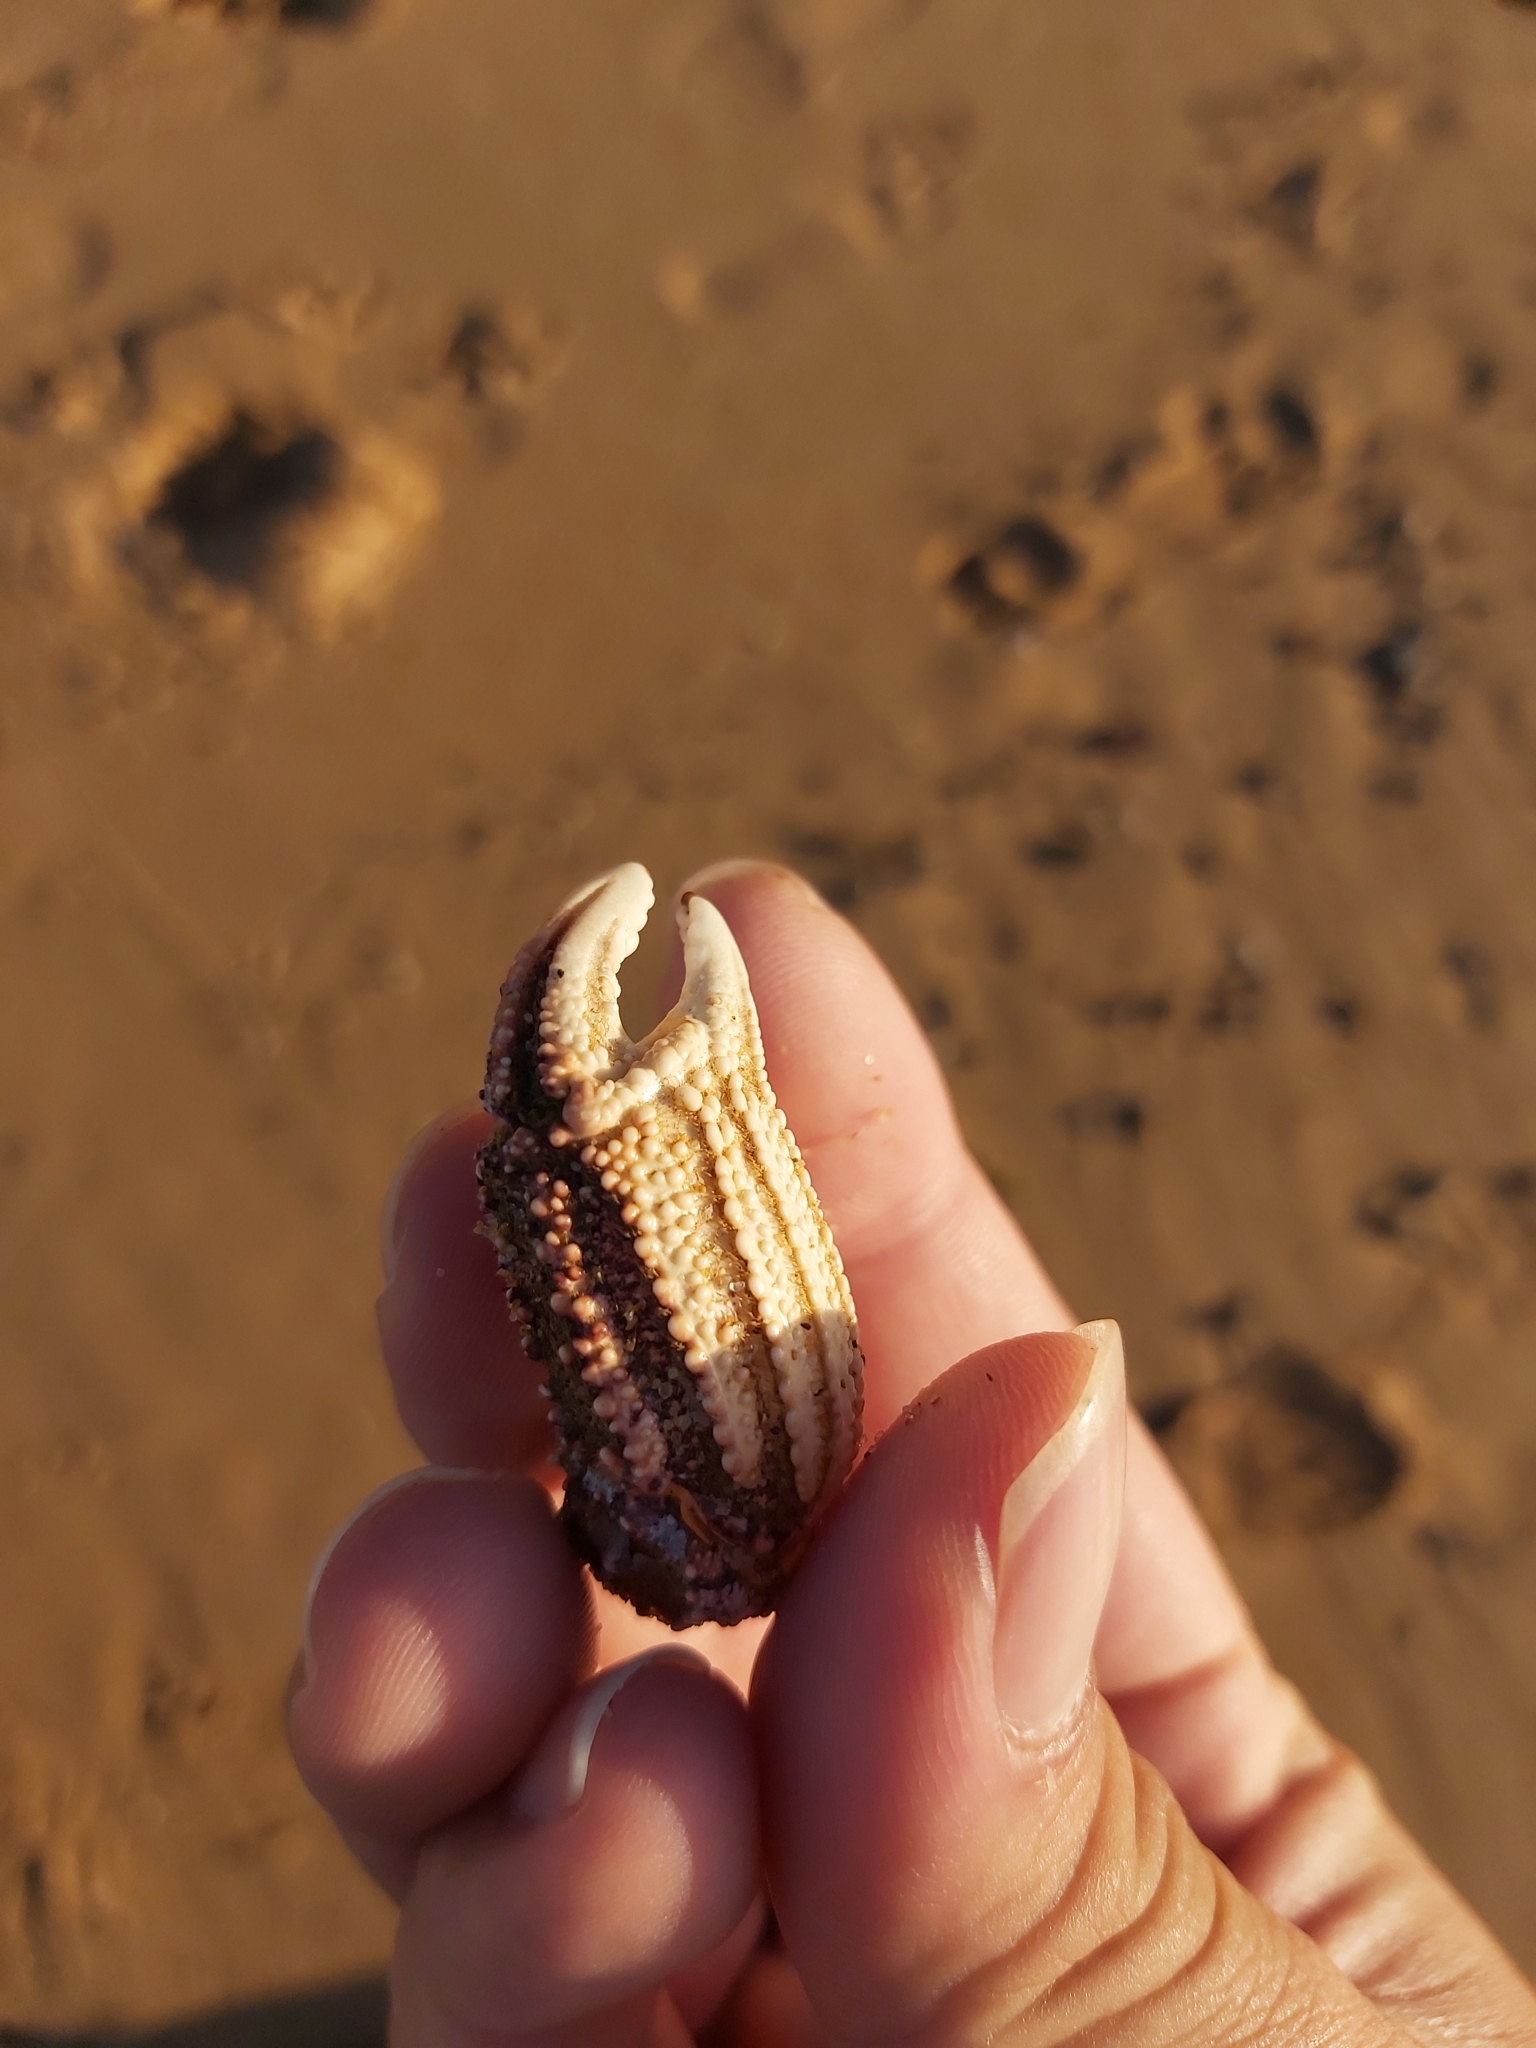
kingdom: Animalia
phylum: Arthropoda
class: Malacostraca
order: Decapoda
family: Plagusiidae
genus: Guinusia
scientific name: Guinusia chabrus
